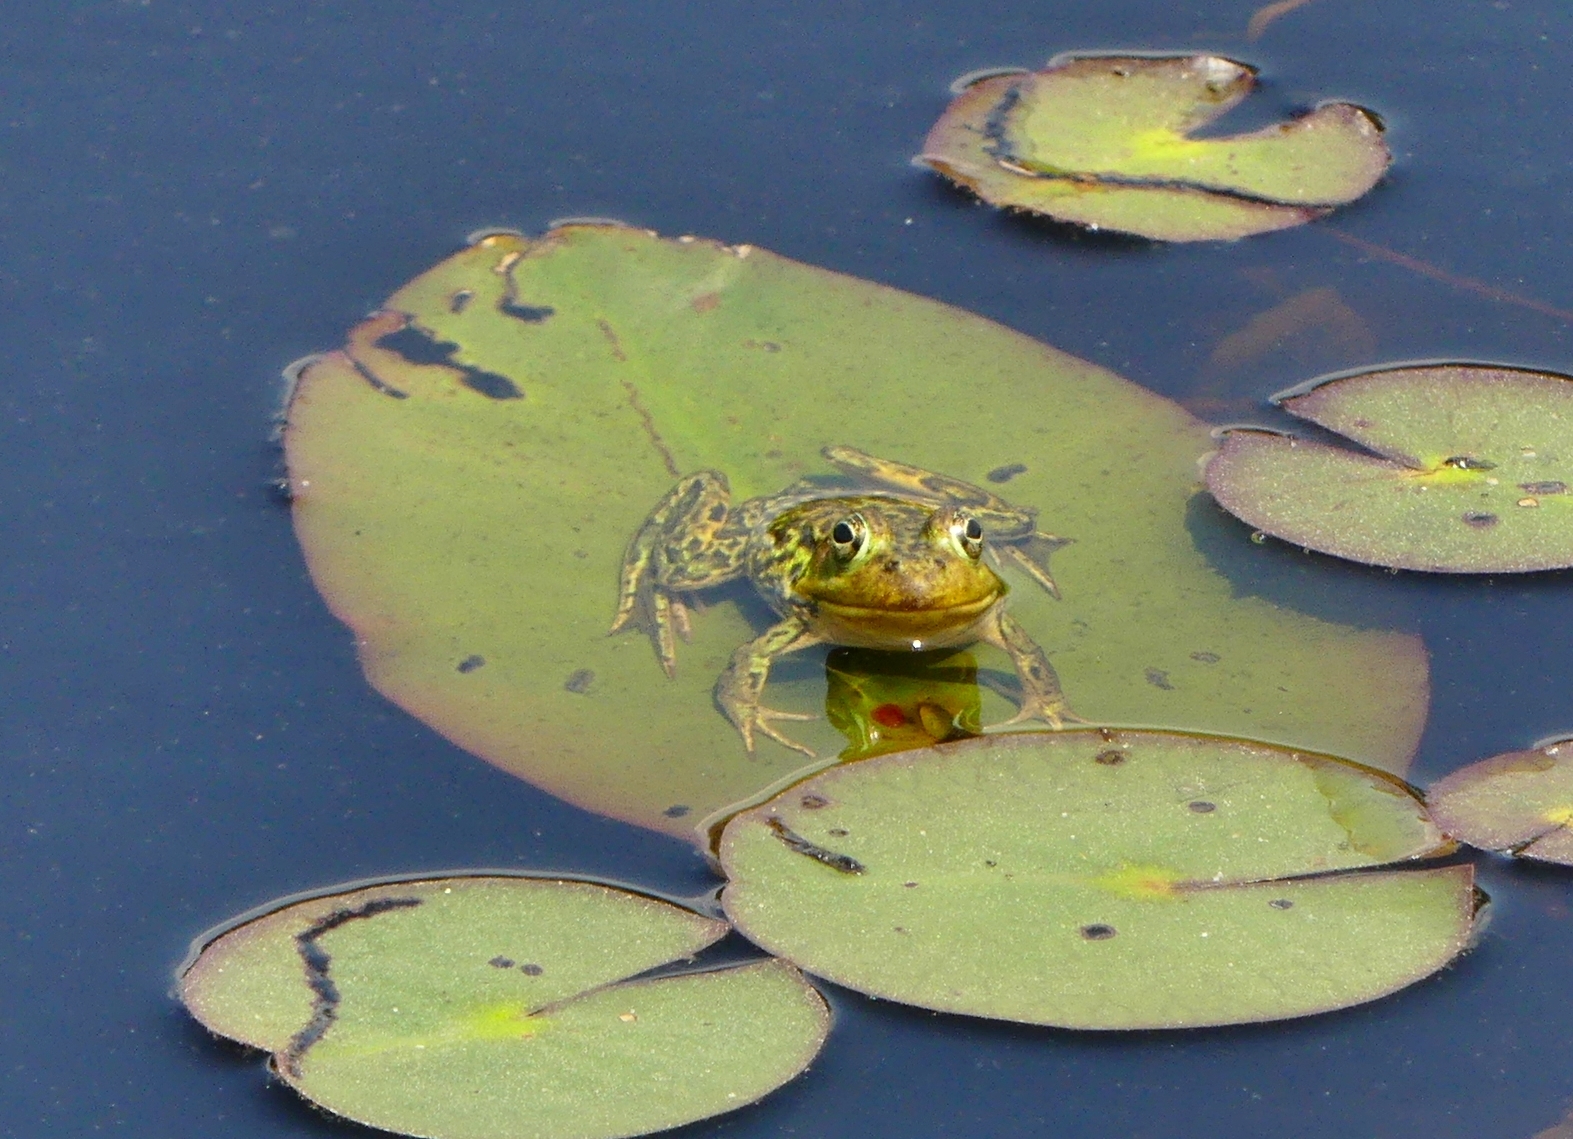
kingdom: Animalia
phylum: Chordata
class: Amphibia
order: Anura
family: Ranidae
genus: Lithobates
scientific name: Lithobates septentrionalis
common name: Mink frog
